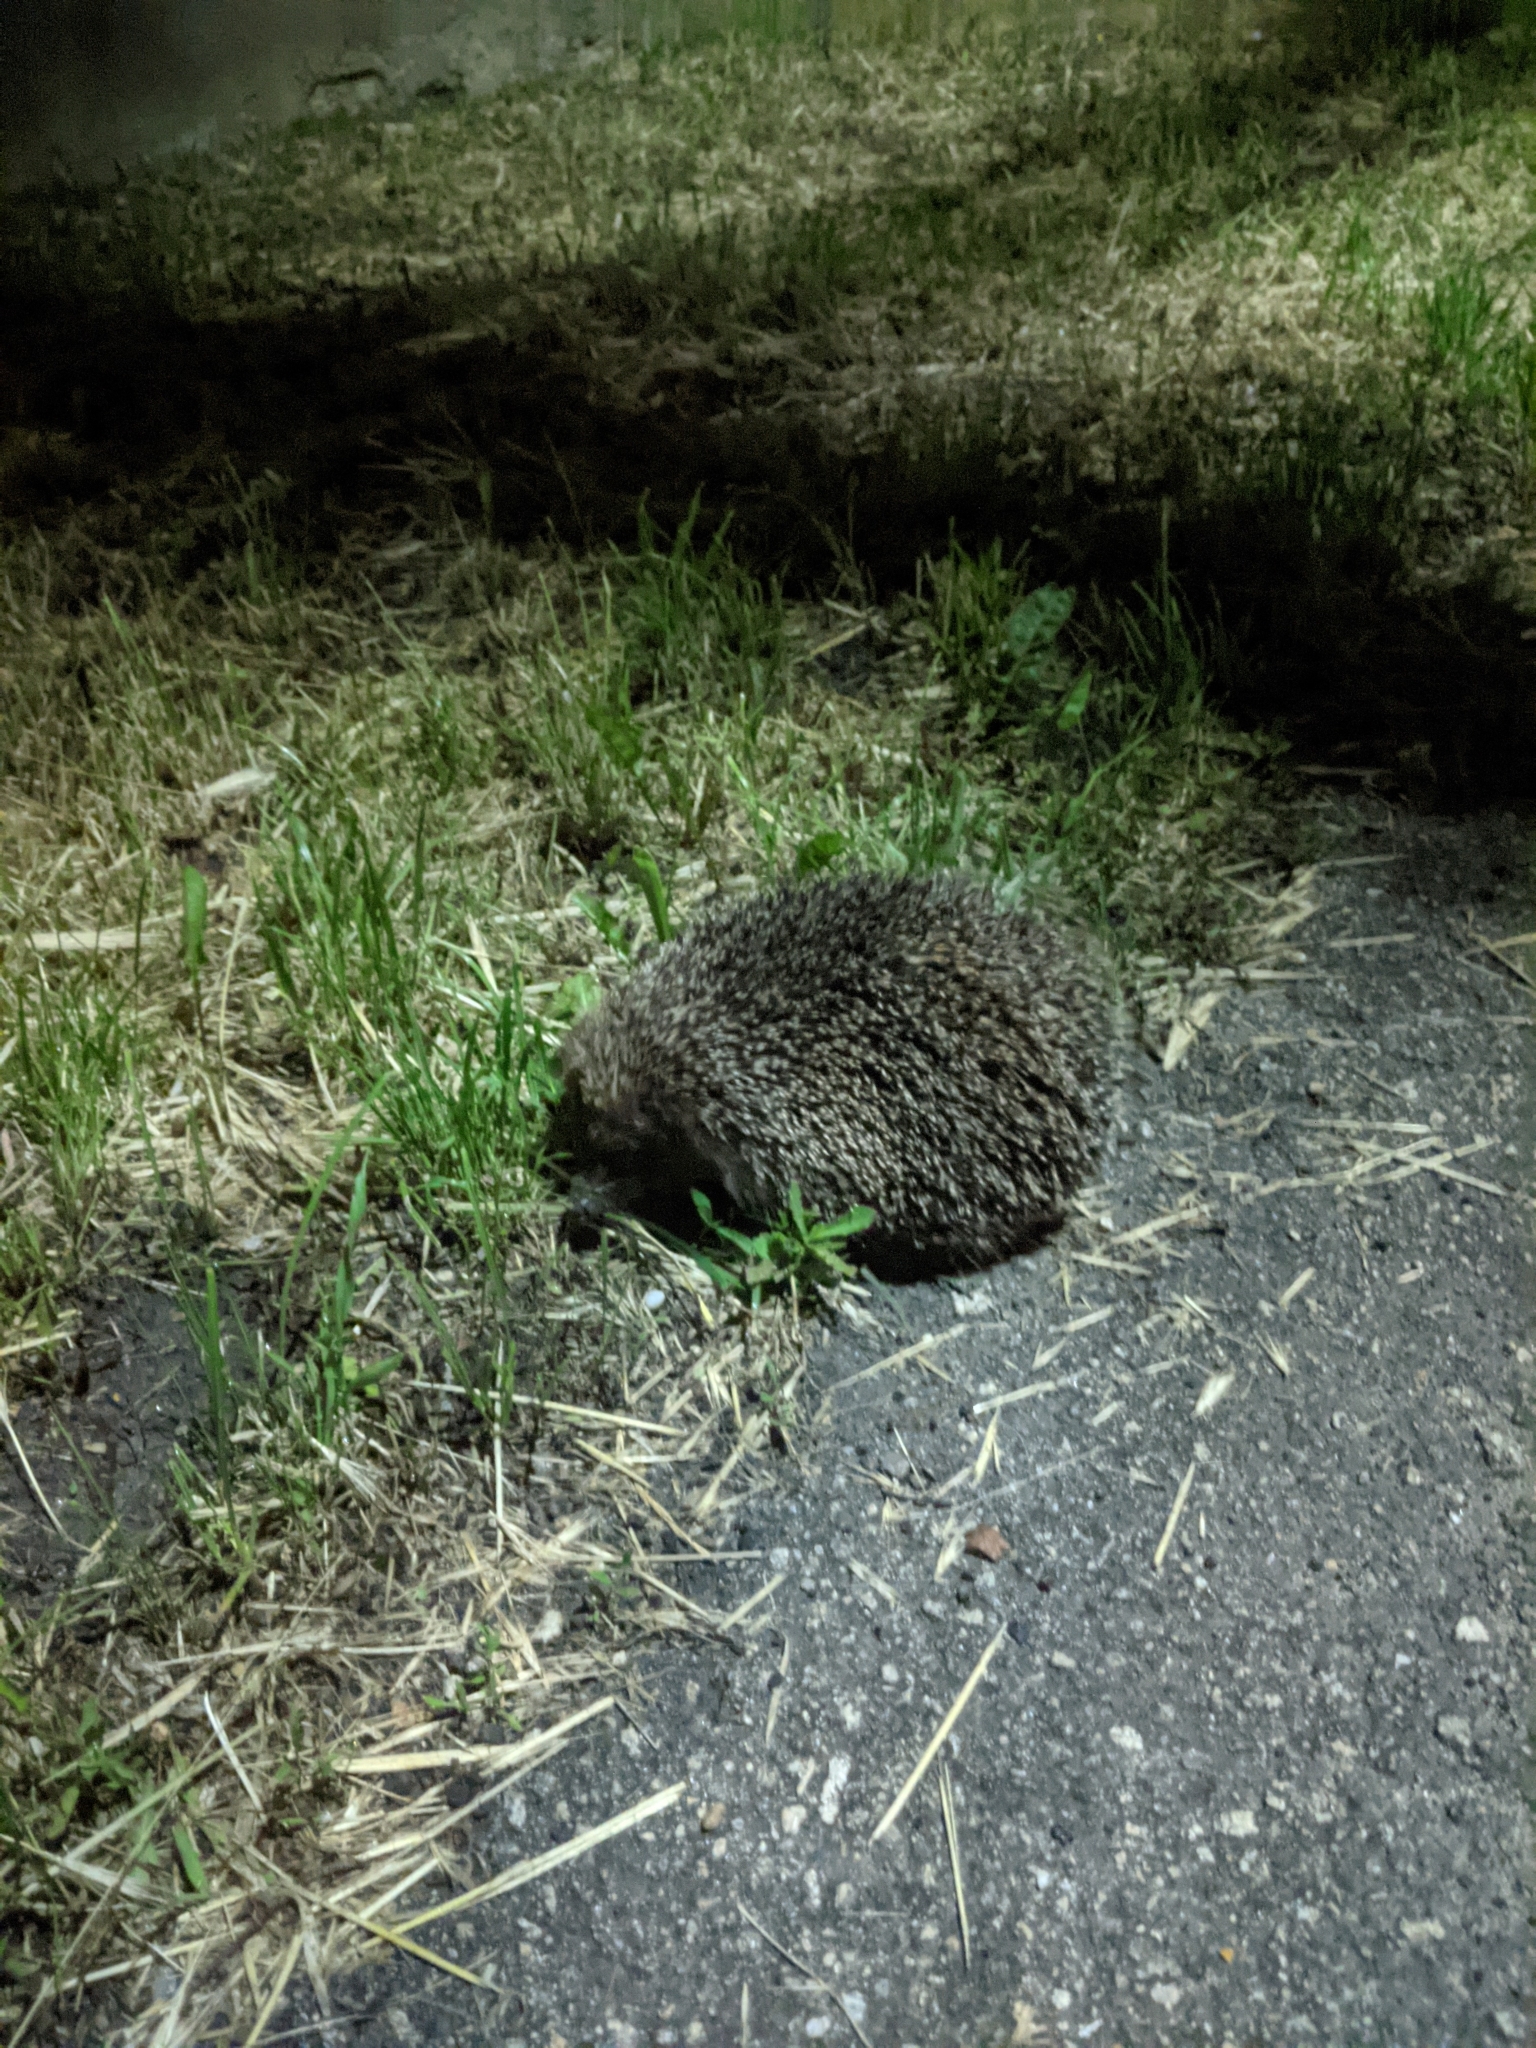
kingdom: Animalia
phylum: Chordata
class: Mammalia
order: Erinaceomorpha
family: Erinaceidae
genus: Erinaceus
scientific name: Erinaceus roumanicus
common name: Northern white-breasted hedgehog
